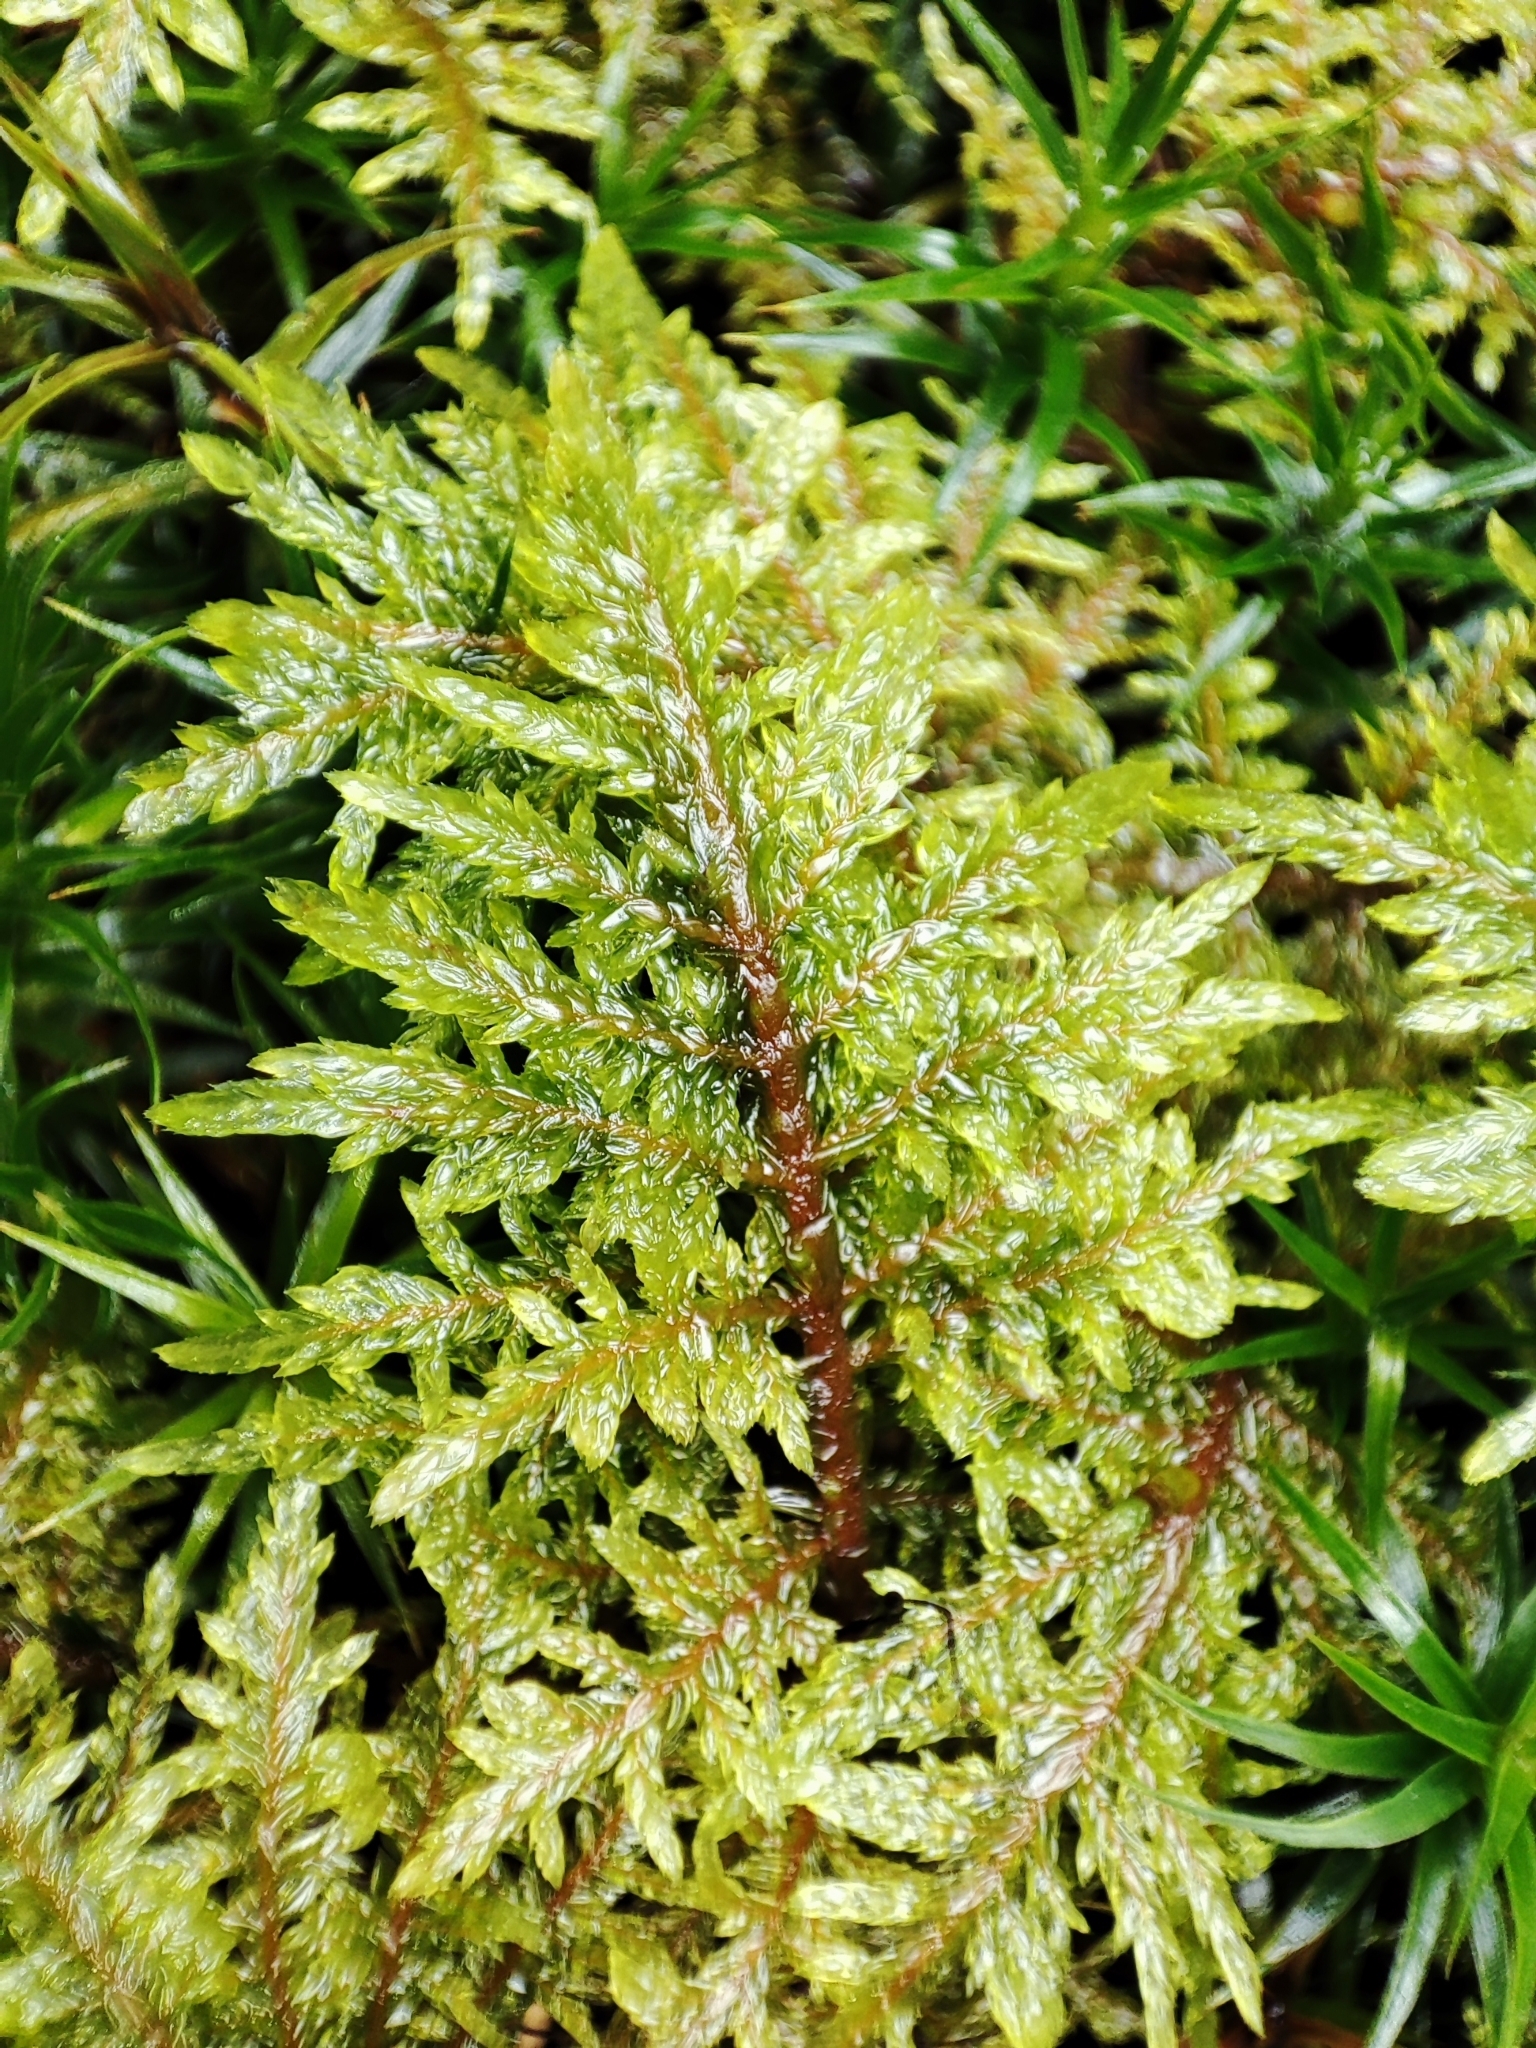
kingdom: Plantae
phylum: Bryophyta
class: Bryopsida
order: Hypnales
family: Hylocomiaceae
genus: Hylocomium
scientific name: Hylocomium splendens
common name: Stairstep moss
